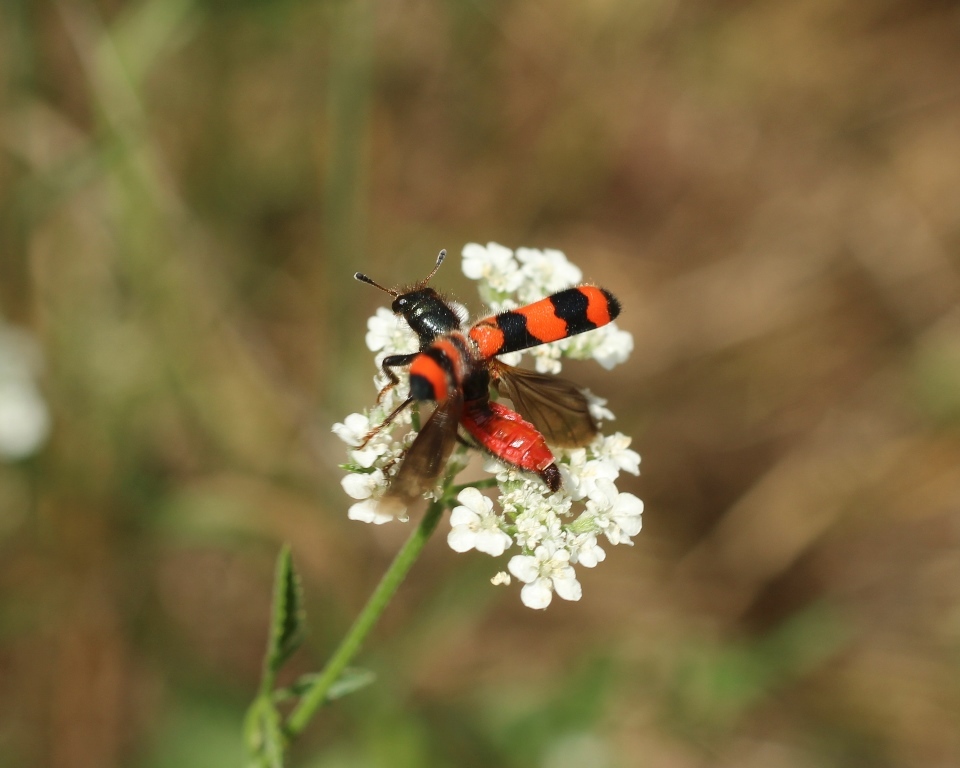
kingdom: Animalia
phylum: Arthropoda
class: Insecta
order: Coleoptera
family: Cleridae
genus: Trichodes
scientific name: Trichodes apiarius
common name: Bee-eating beetle
